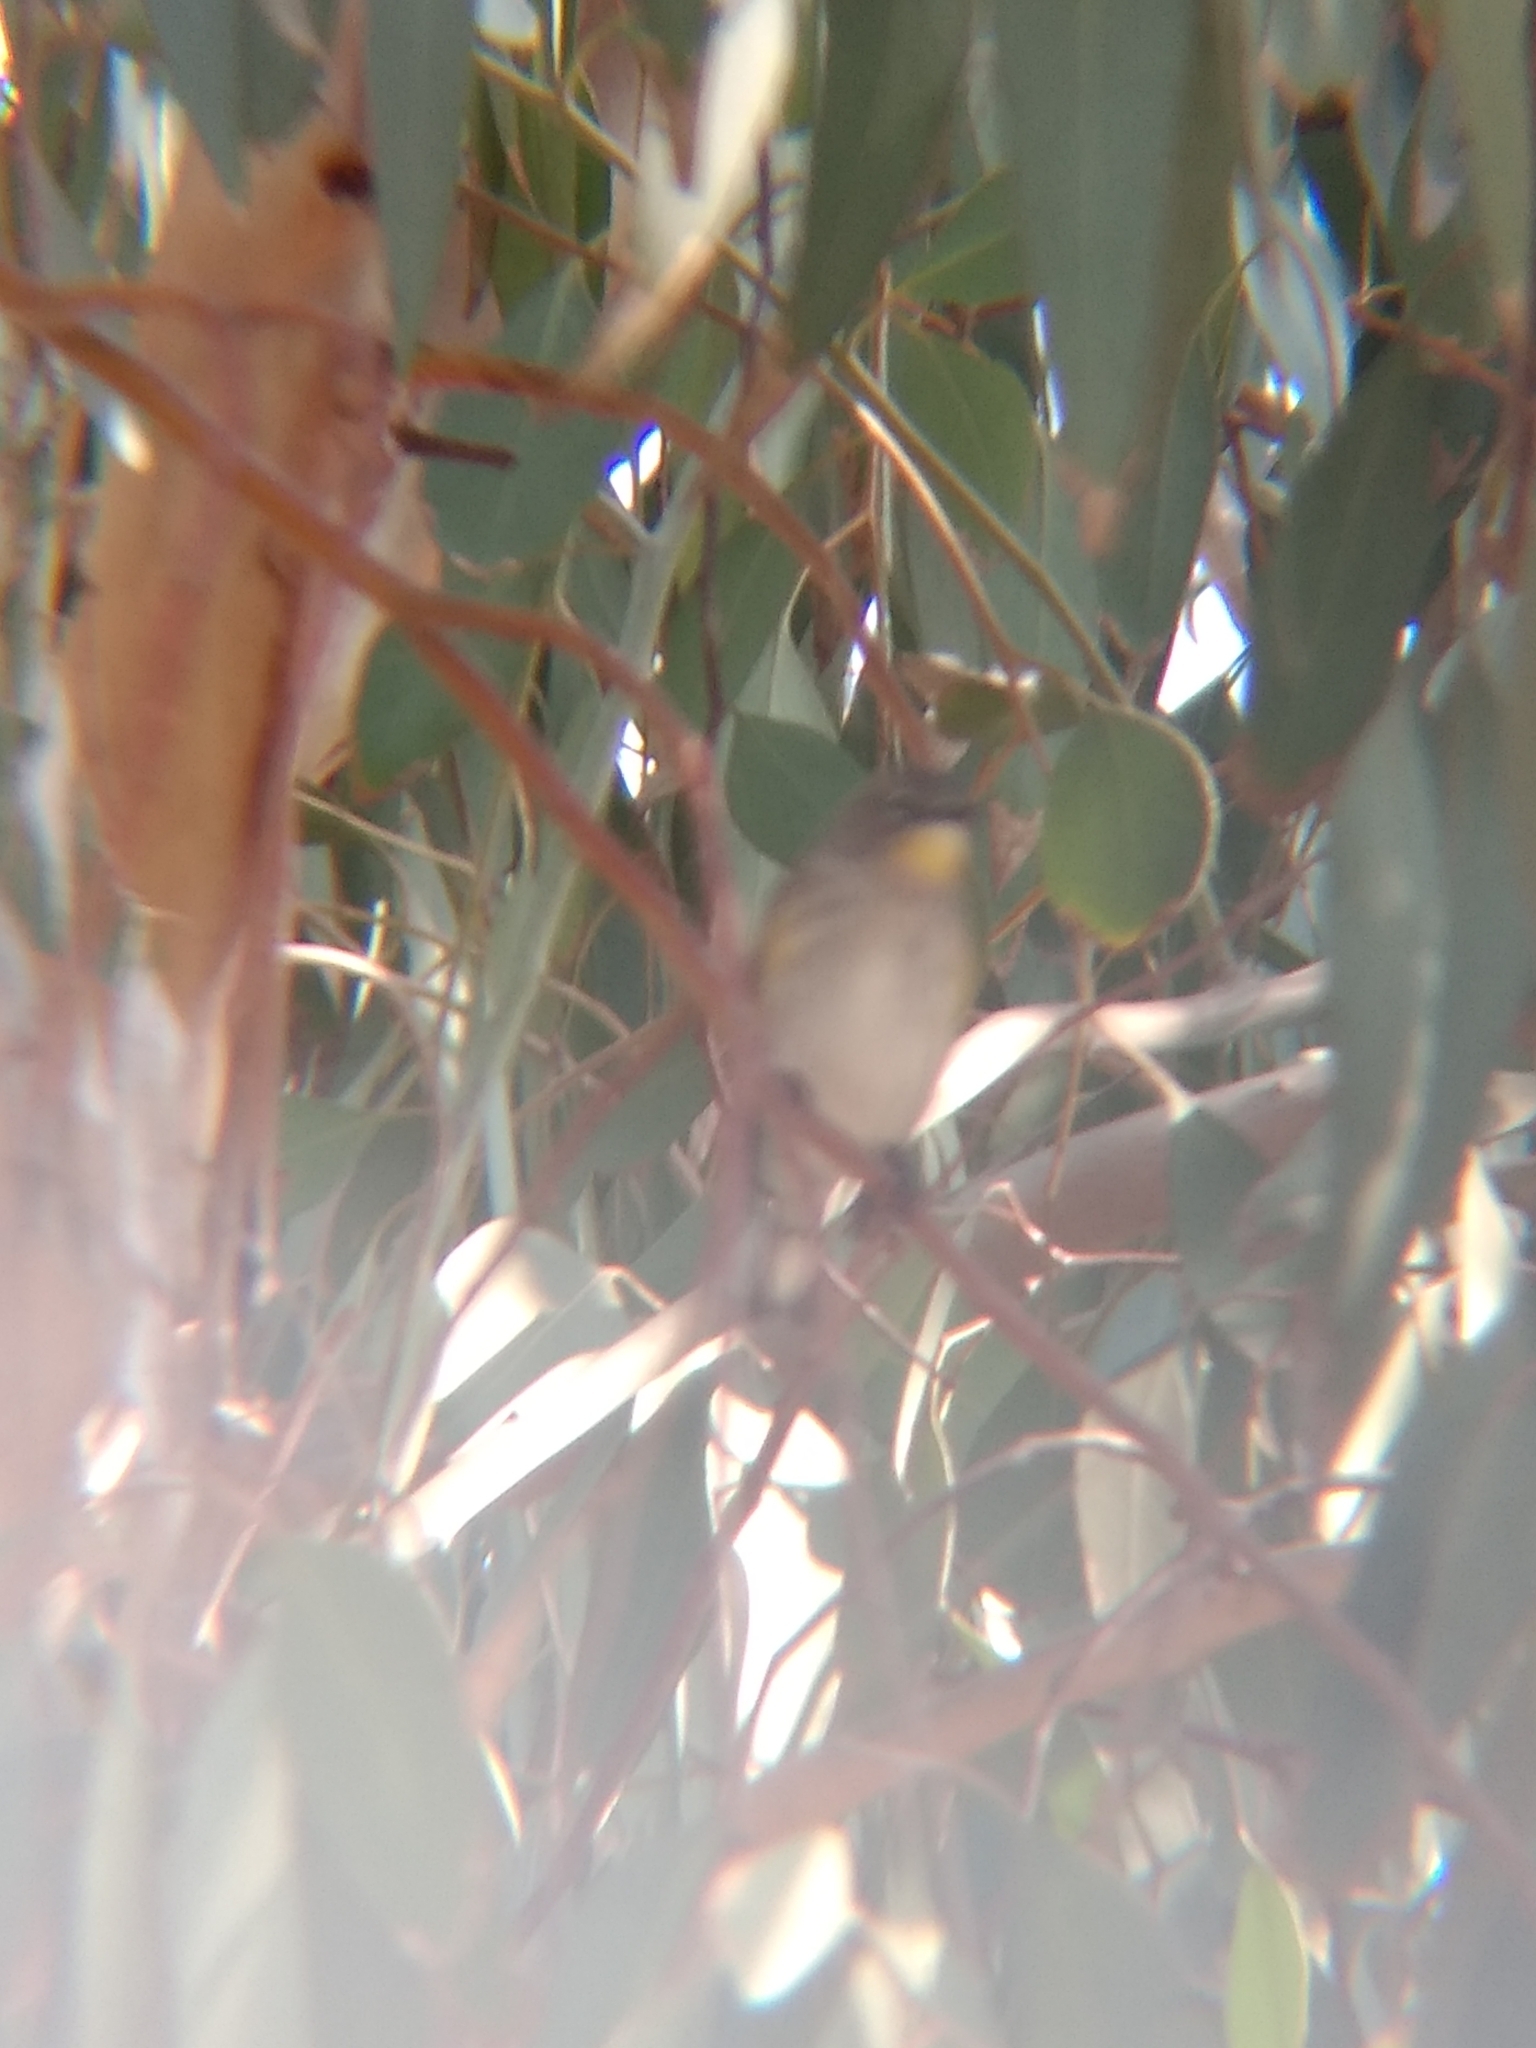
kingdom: Animalia
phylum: Chordata
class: Aves
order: Passeriformes
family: Parulidae
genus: Setophaga
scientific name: Setophaga coronata
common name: Myrtle warbler
